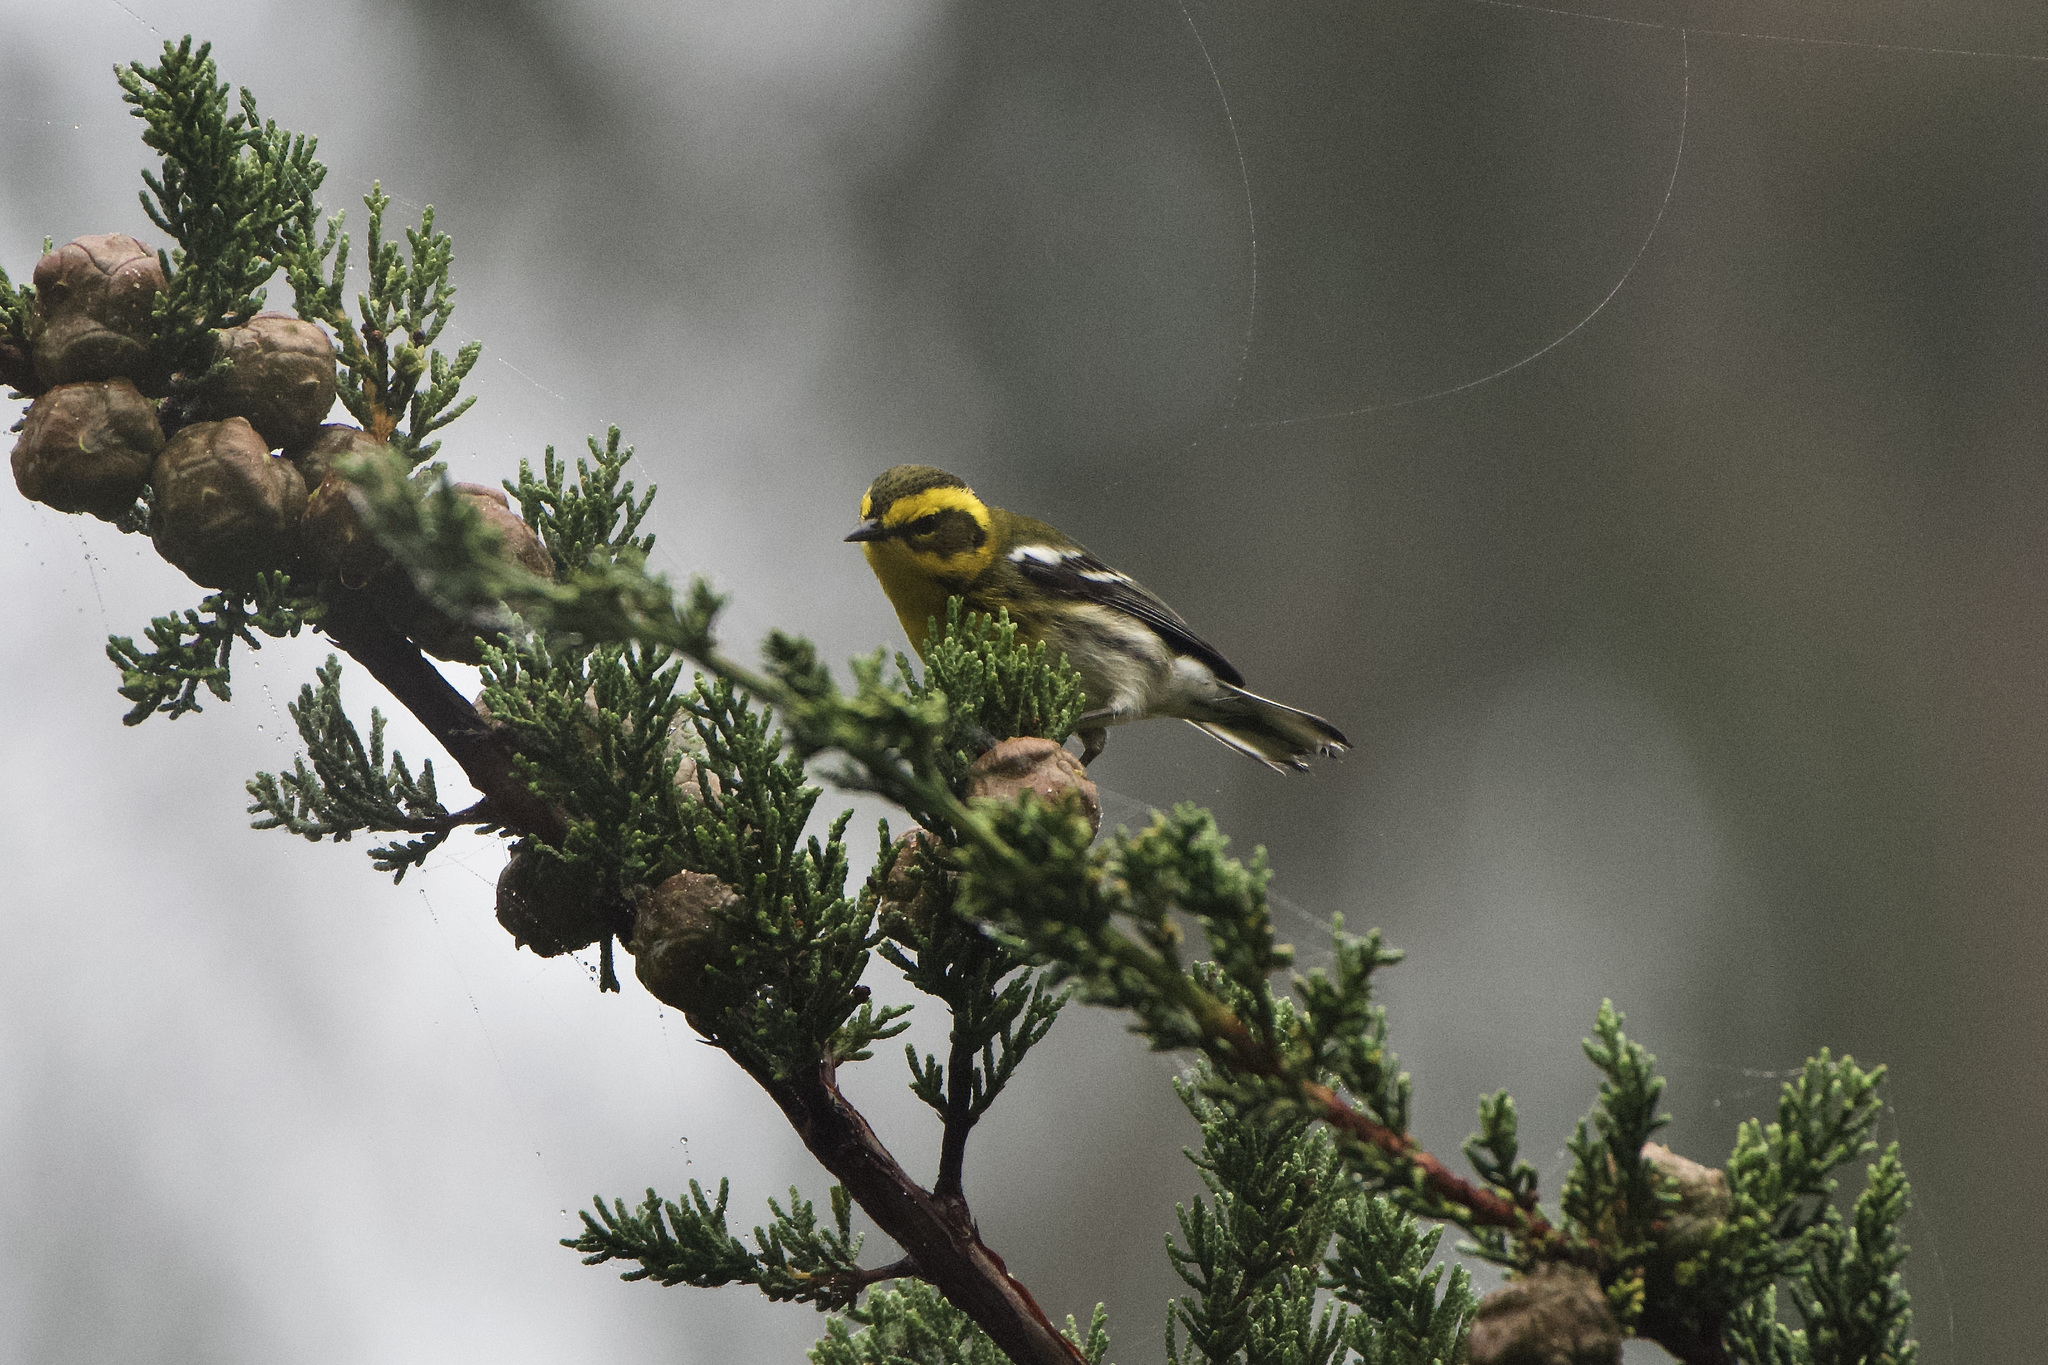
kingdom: Animalia
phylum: Chordata
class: Aves
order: Passeriformes
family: Parulidae
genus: Setophaga
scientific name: Setophaga townsendi
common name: Townsend's warbler
